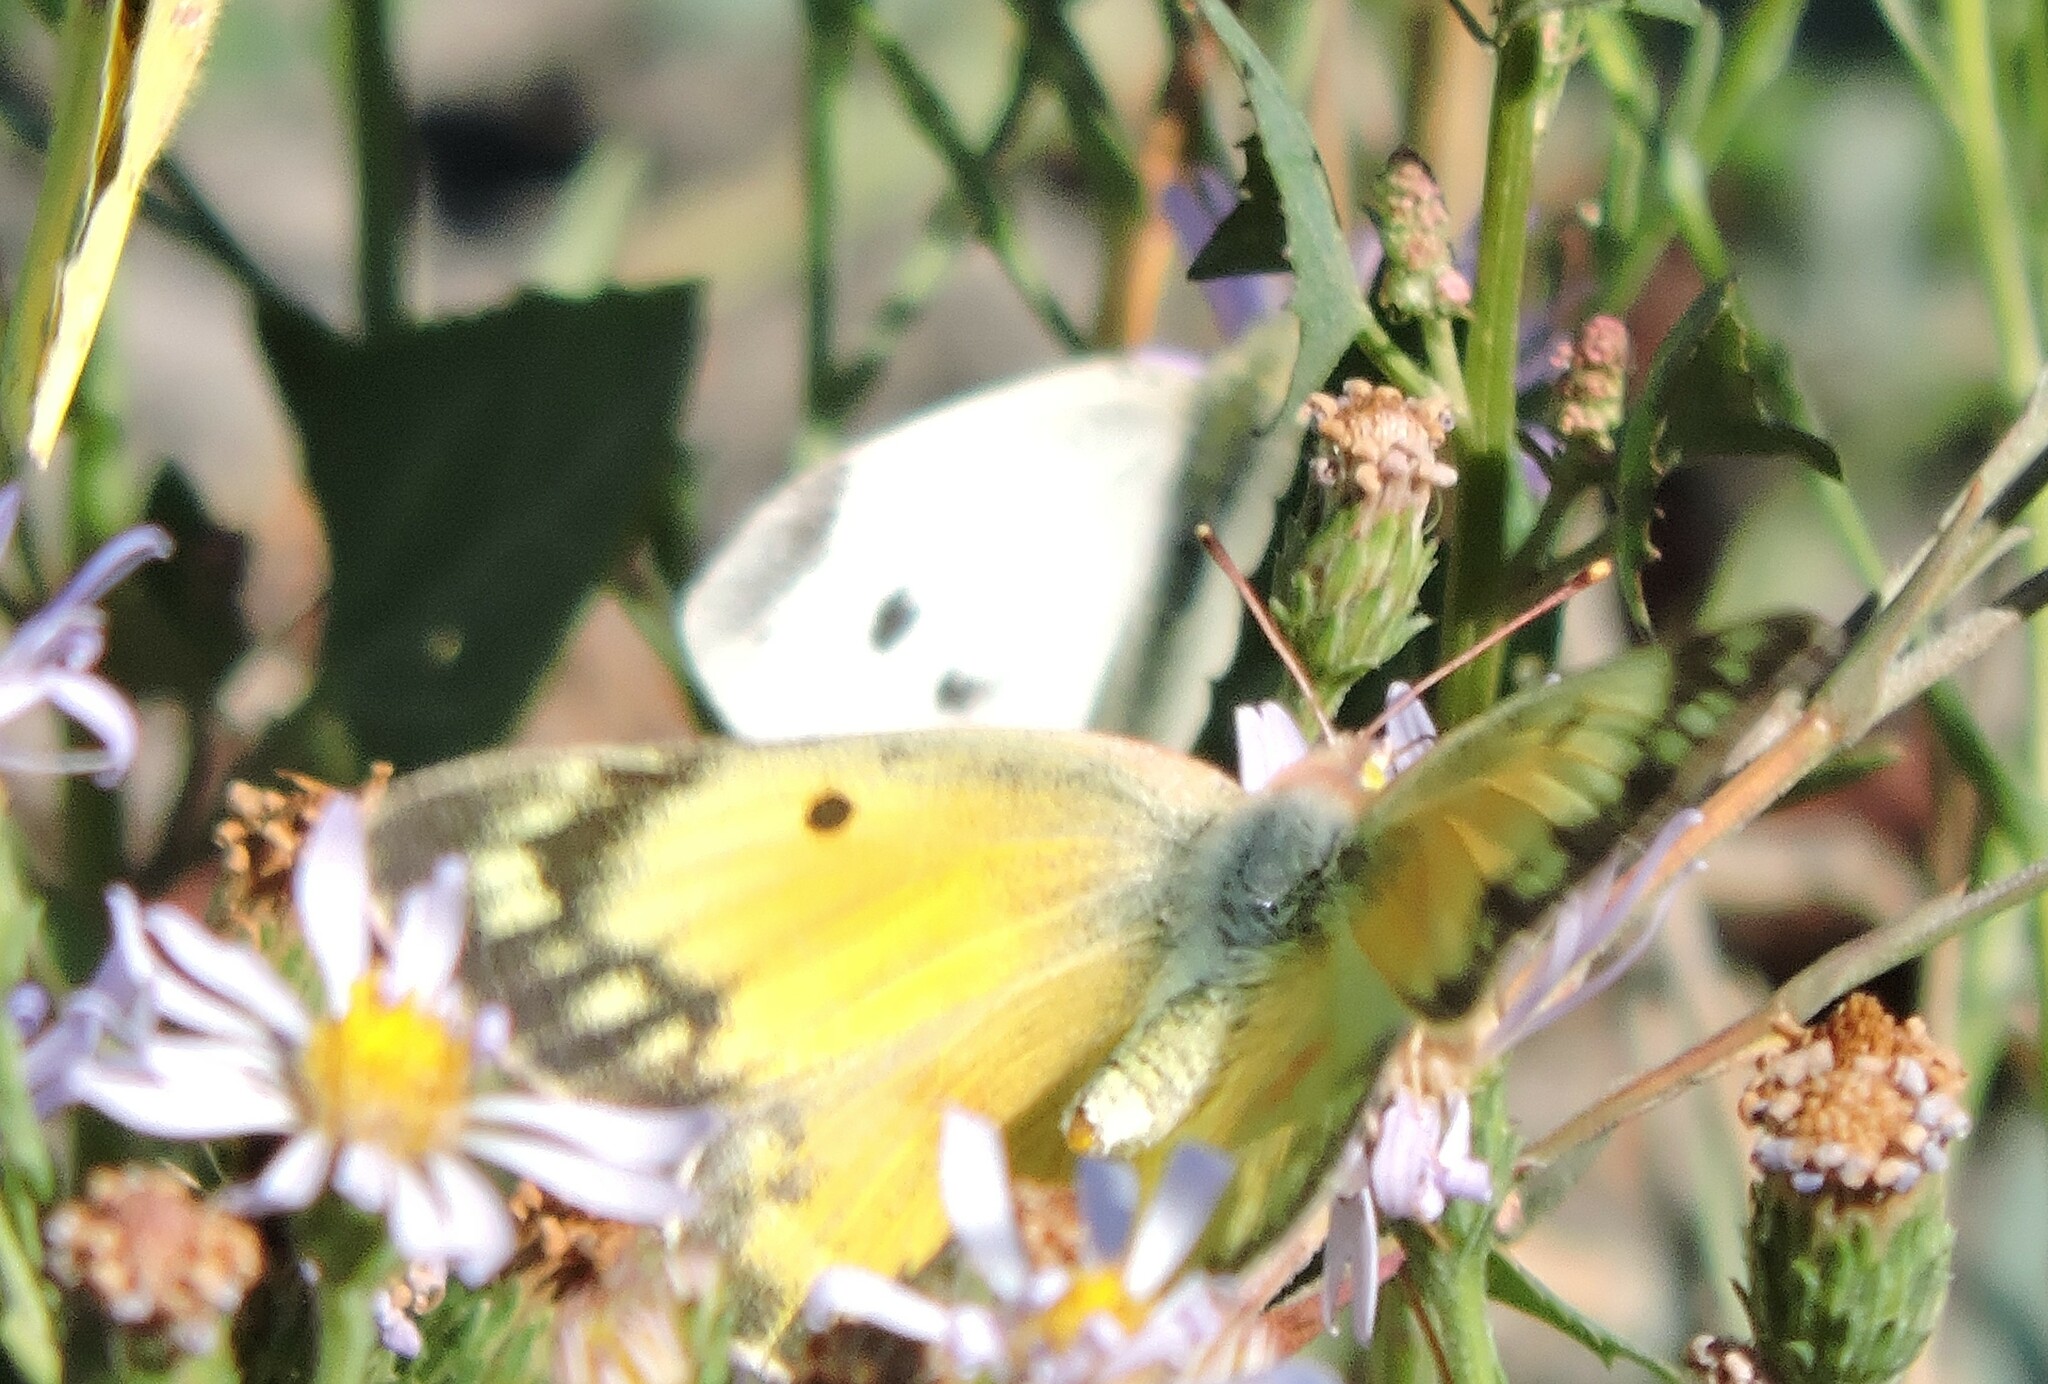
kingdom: Animalia
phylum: Arthropoda
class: Insecta
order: Lepidoptera
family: Pieridae
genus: Colias
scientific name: Colias eurytheme
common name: Alfalfa butterfly
